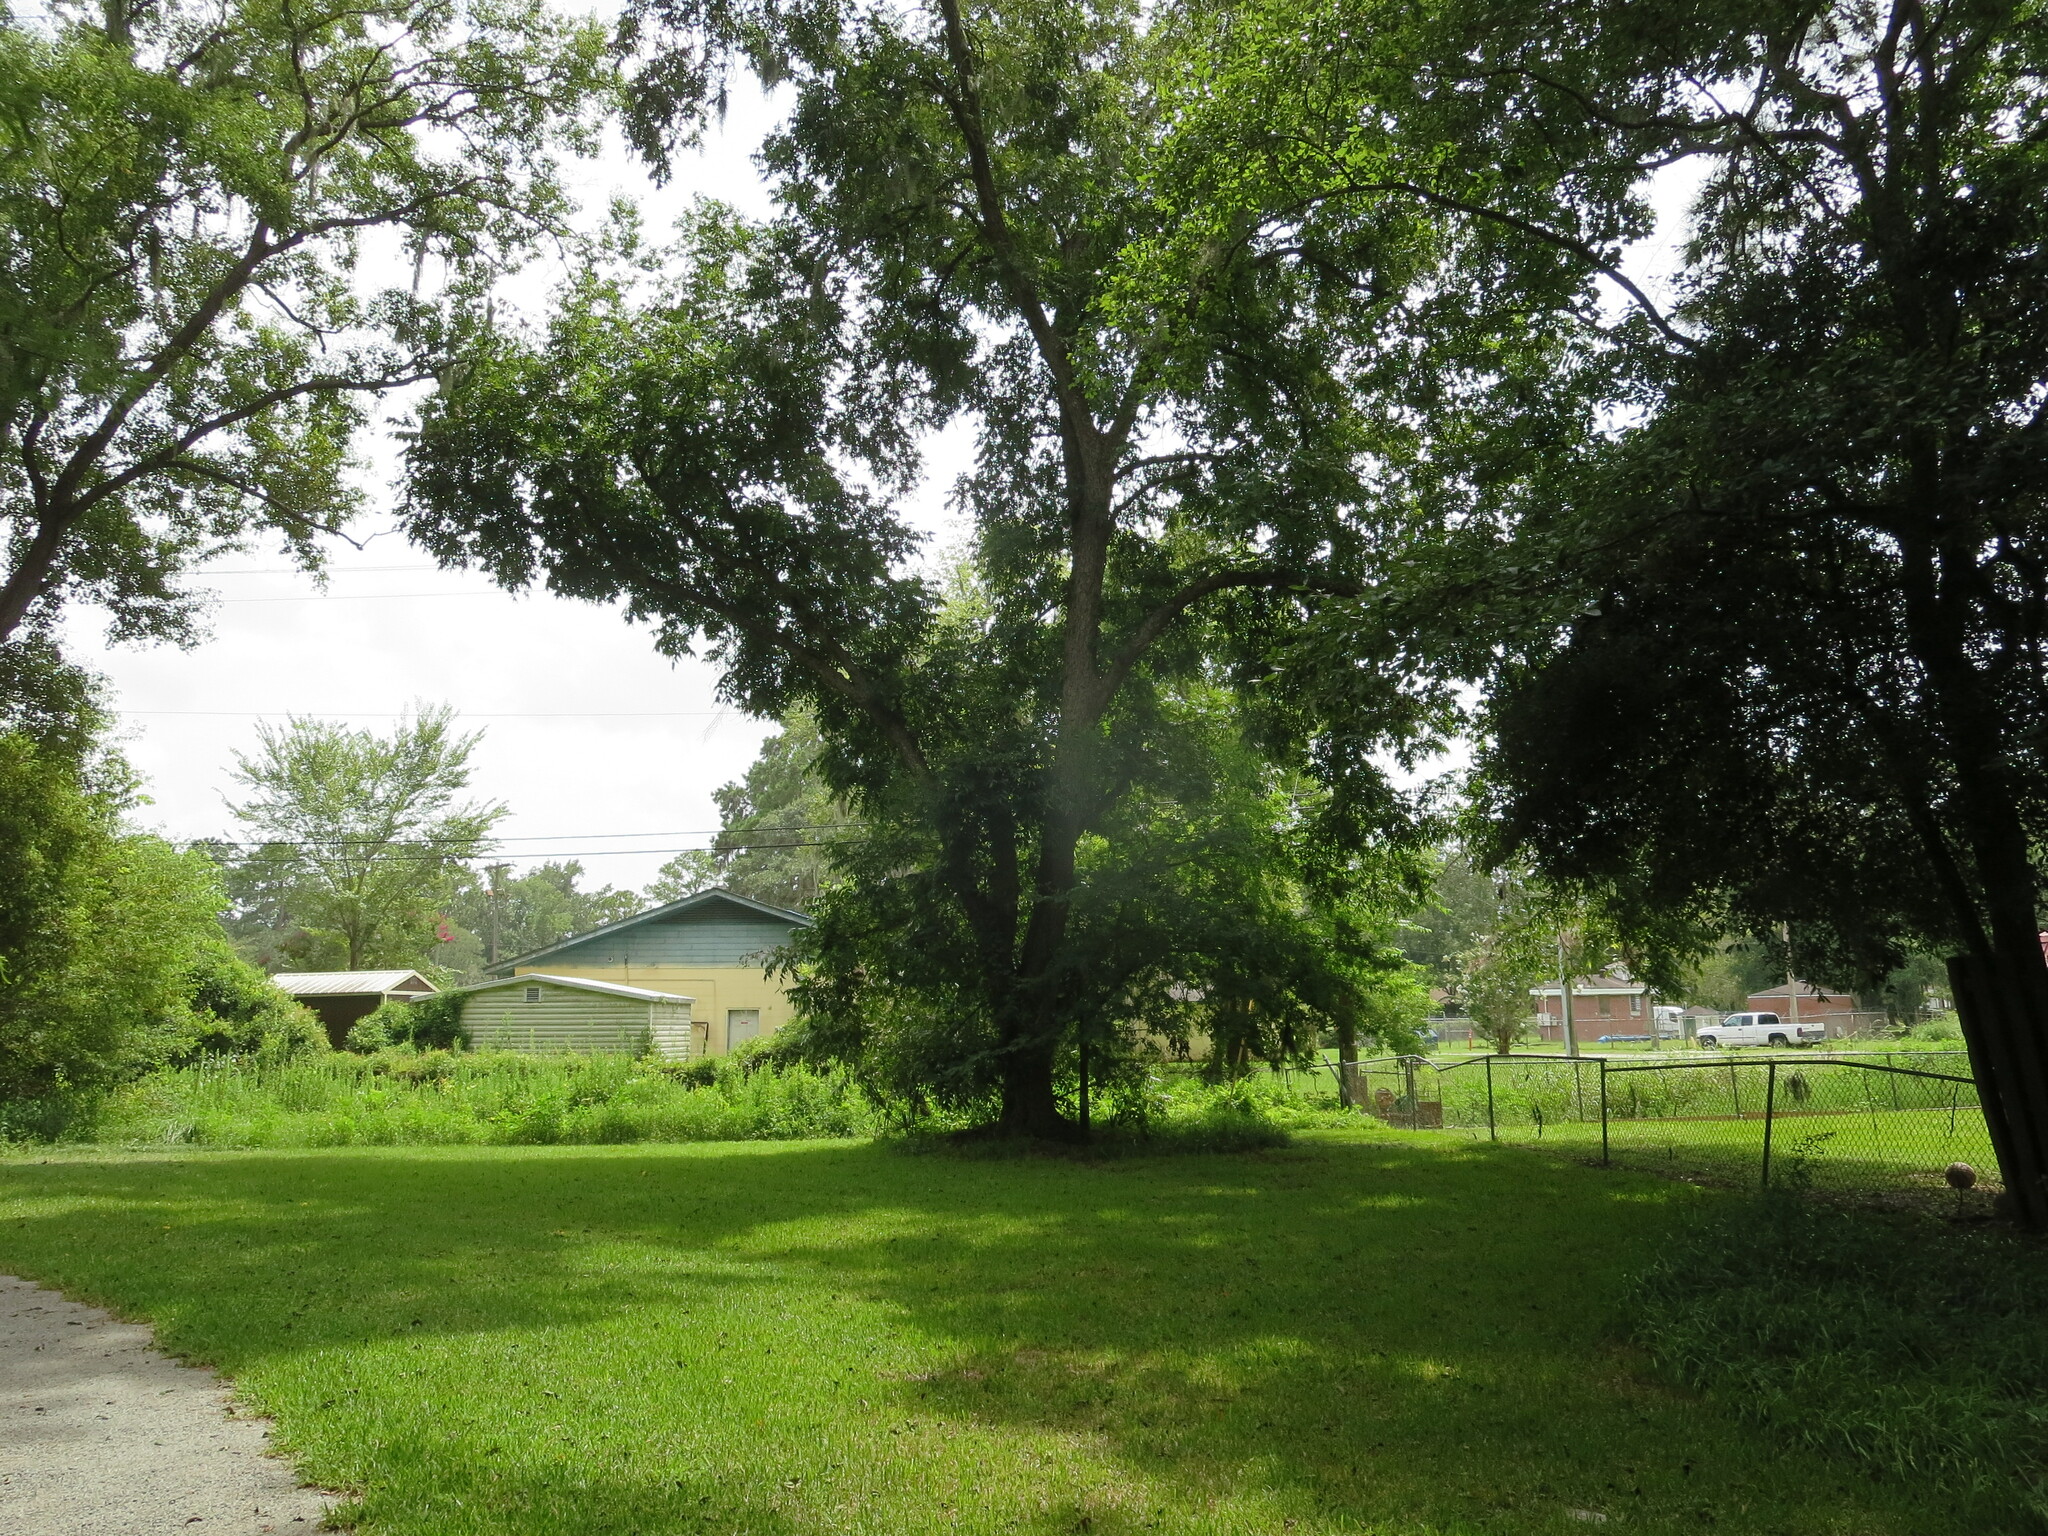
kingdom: Plantae
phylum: Tracheophyta
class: Magnoliopsida
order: Fagales
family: Juglandaceae
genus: Carya
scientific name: Carya illinoinensis
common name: Pecan
